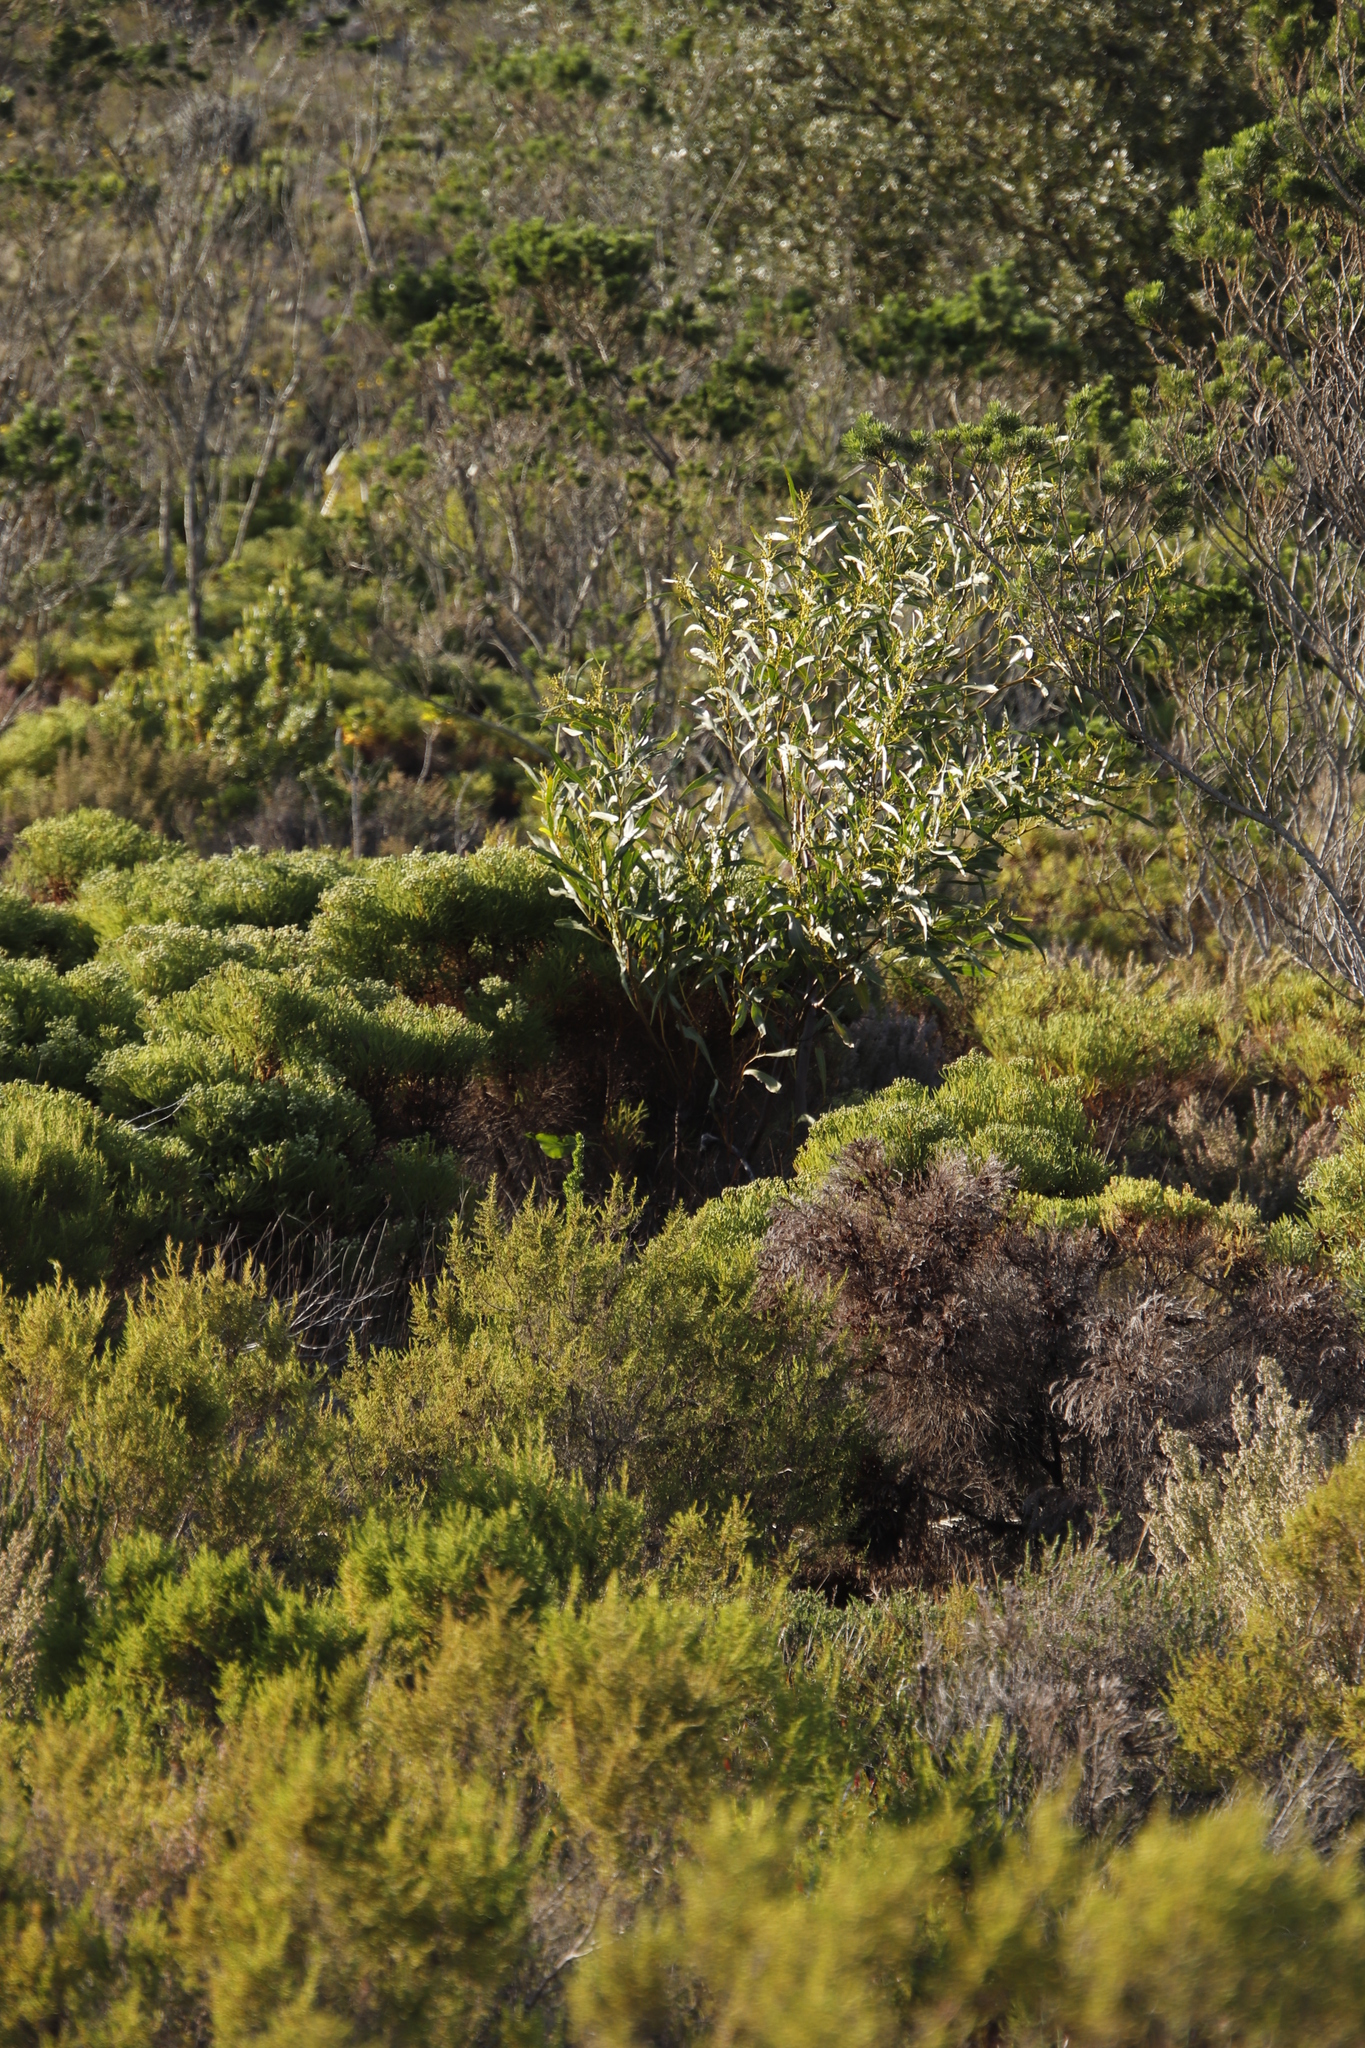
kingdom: Plantae
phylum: Tracheophyta
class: Magnoliopsida
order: Fabales
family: Fabaceae
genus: Acacia
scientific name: Acacia saligna
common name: Orange wattle
